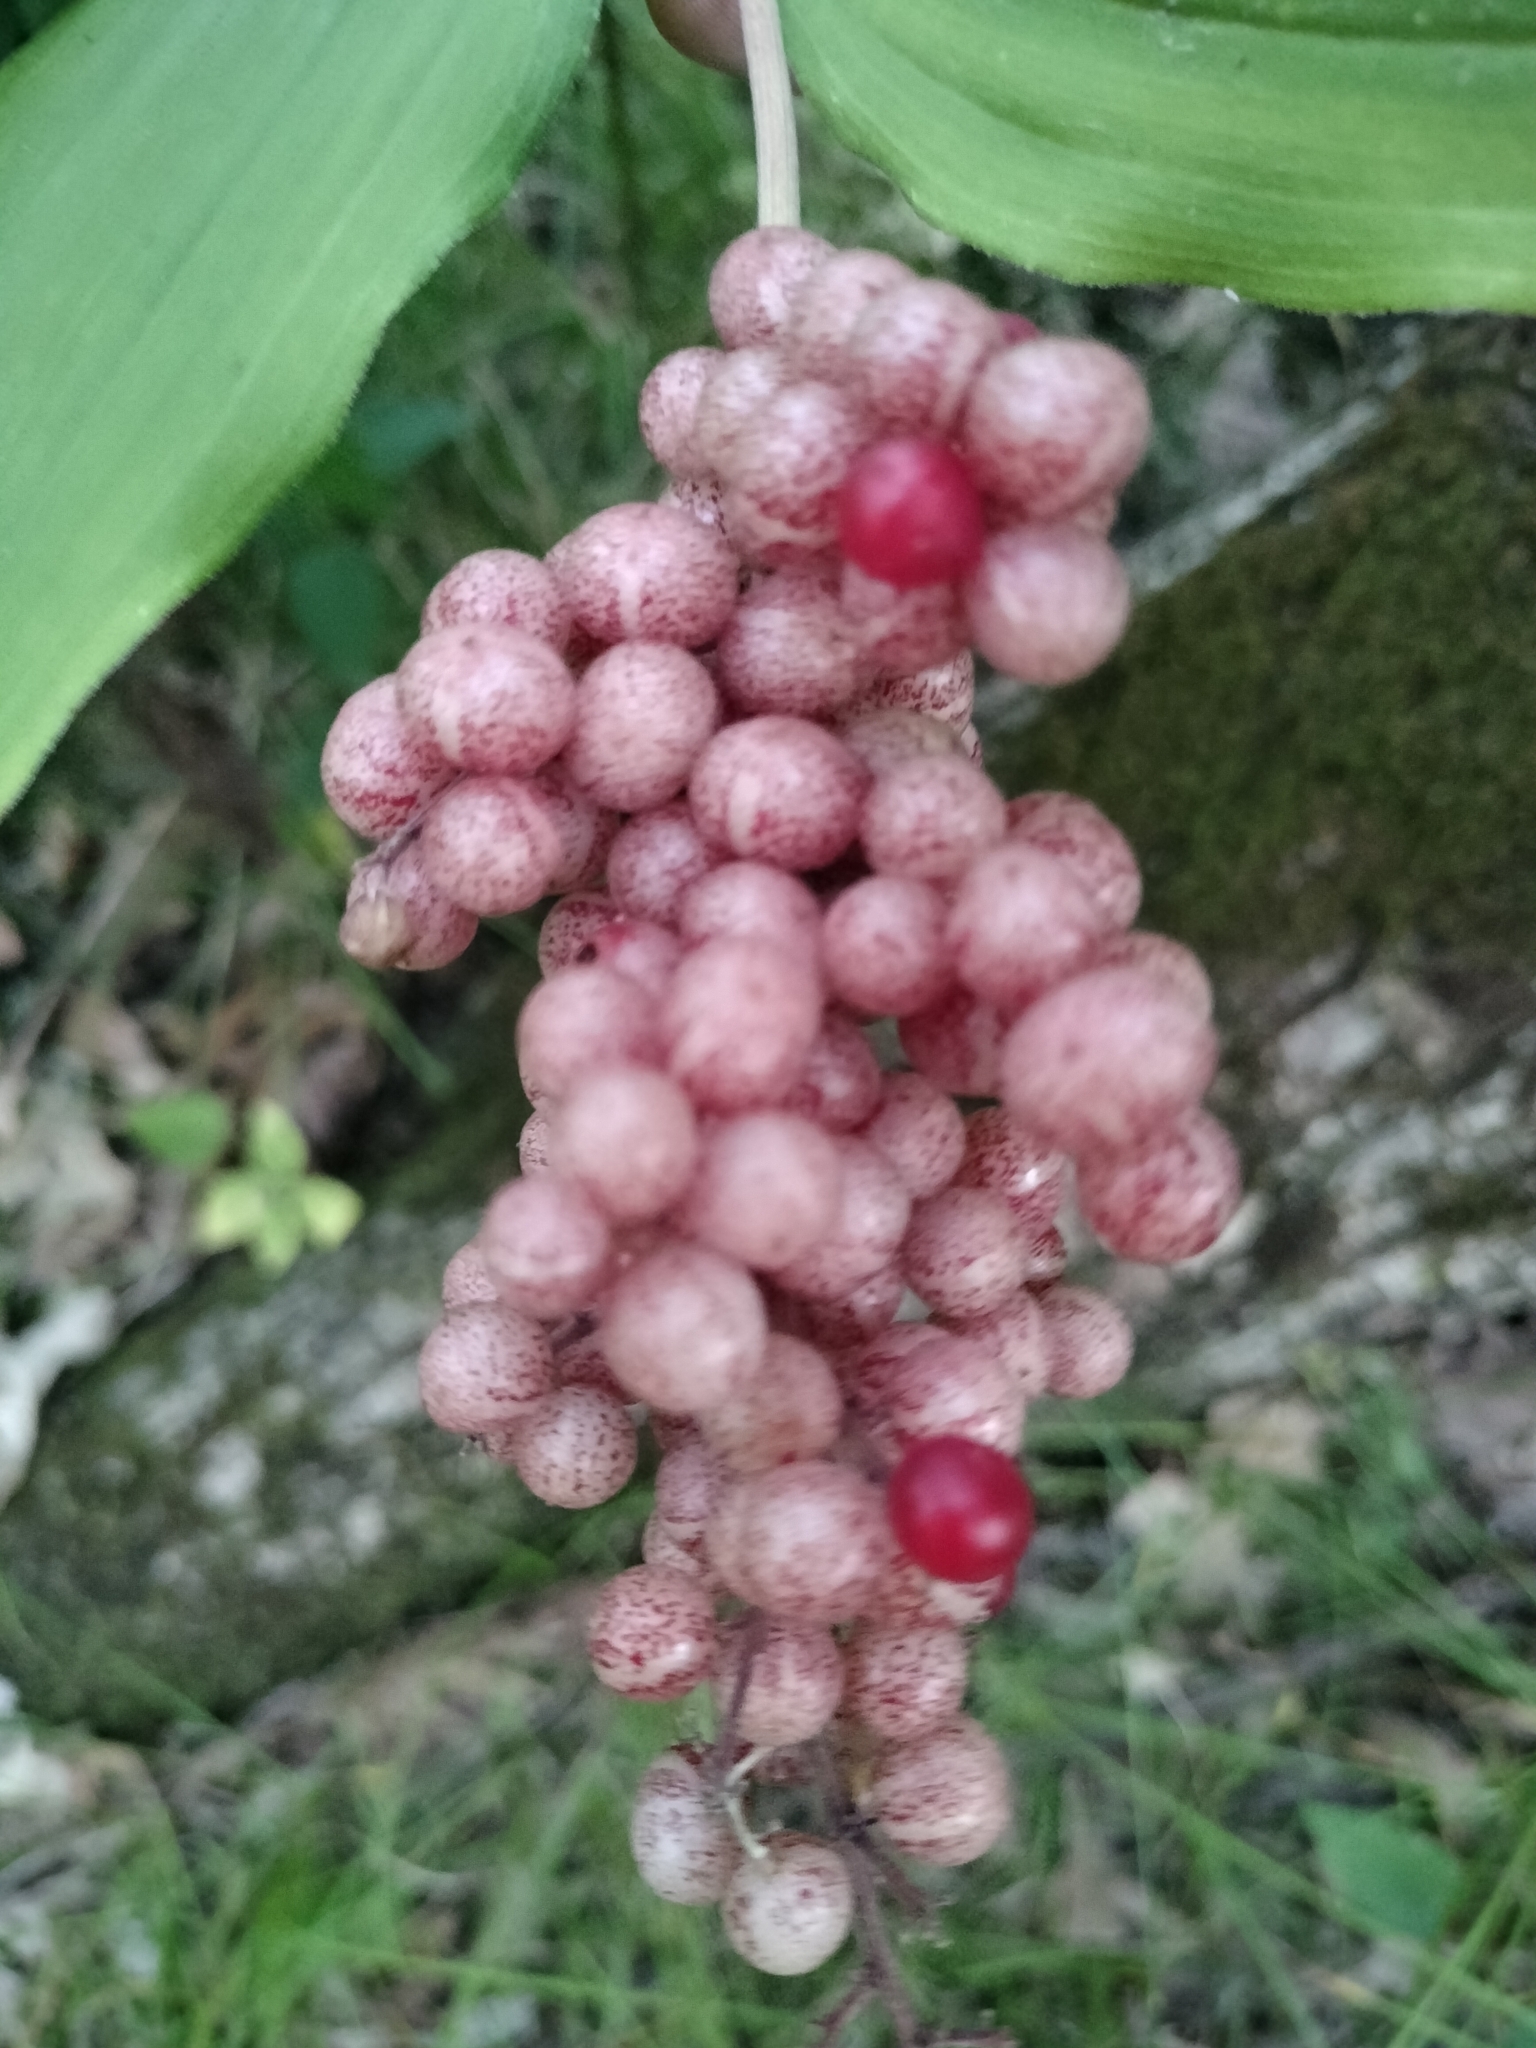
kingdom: Plantae
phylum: Tracheophyta
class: Liliopsida
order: Asparagales
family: Asparagaceae
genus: Maianthemum
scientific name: Maianthemum racemosum
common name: False spikenard
